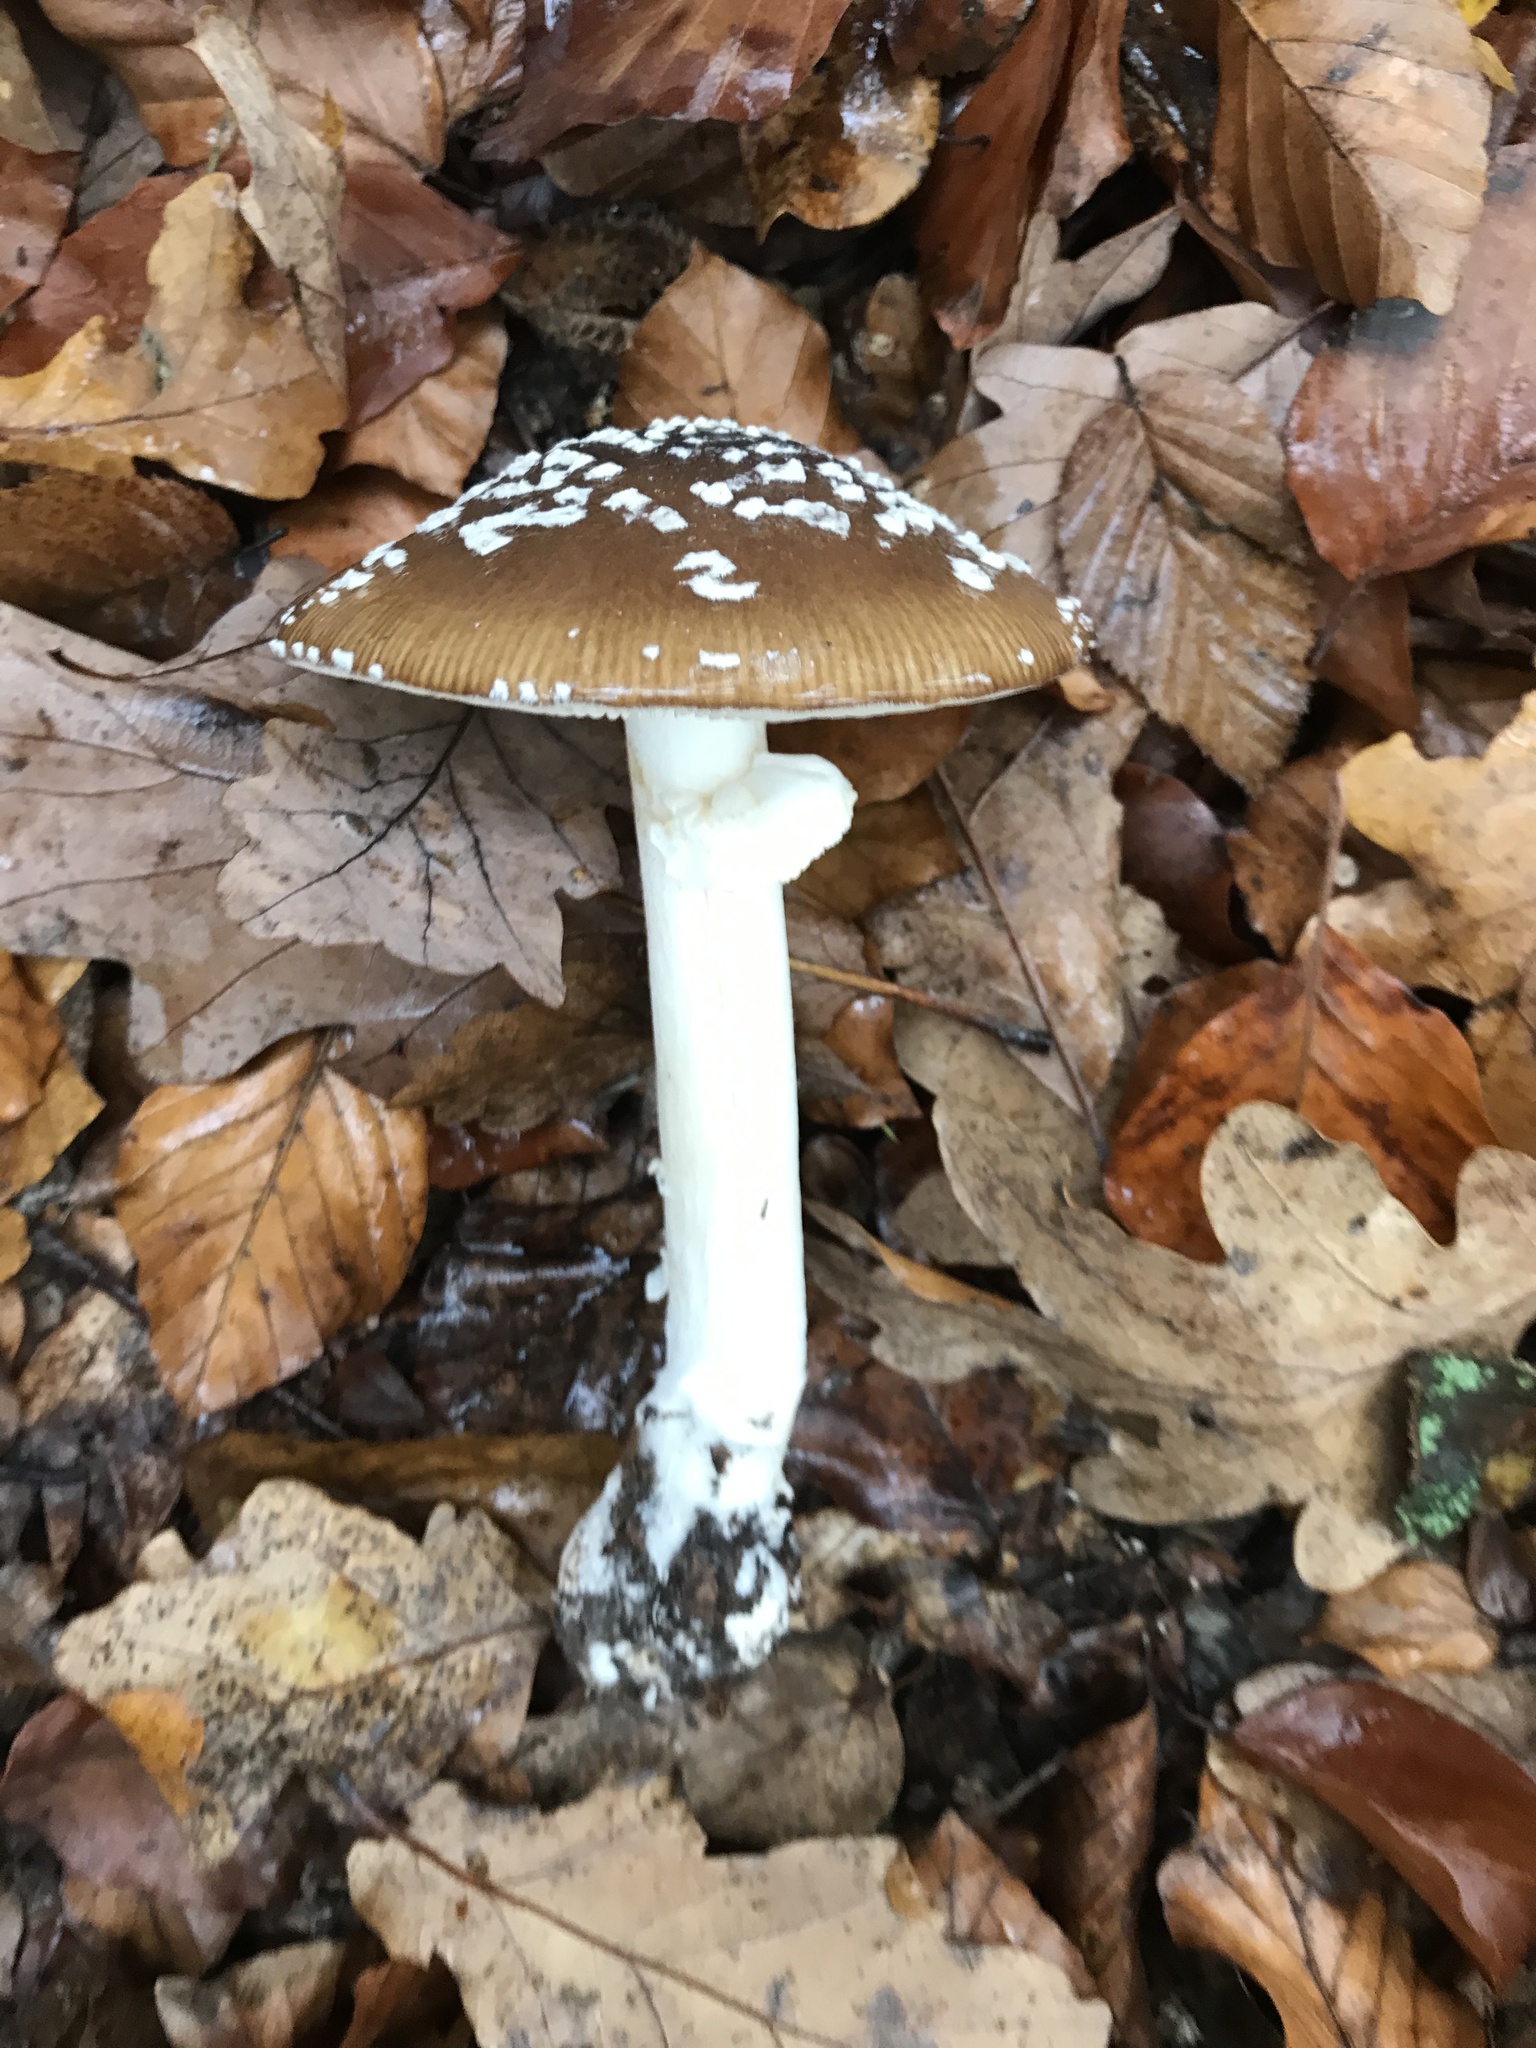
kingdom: Fungi
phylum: Basidiomycota
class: Agaricomycetes
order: Agaricales
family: Amanitaceae
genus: Amanita
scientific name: Amanita pantherina
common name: Panthercap
